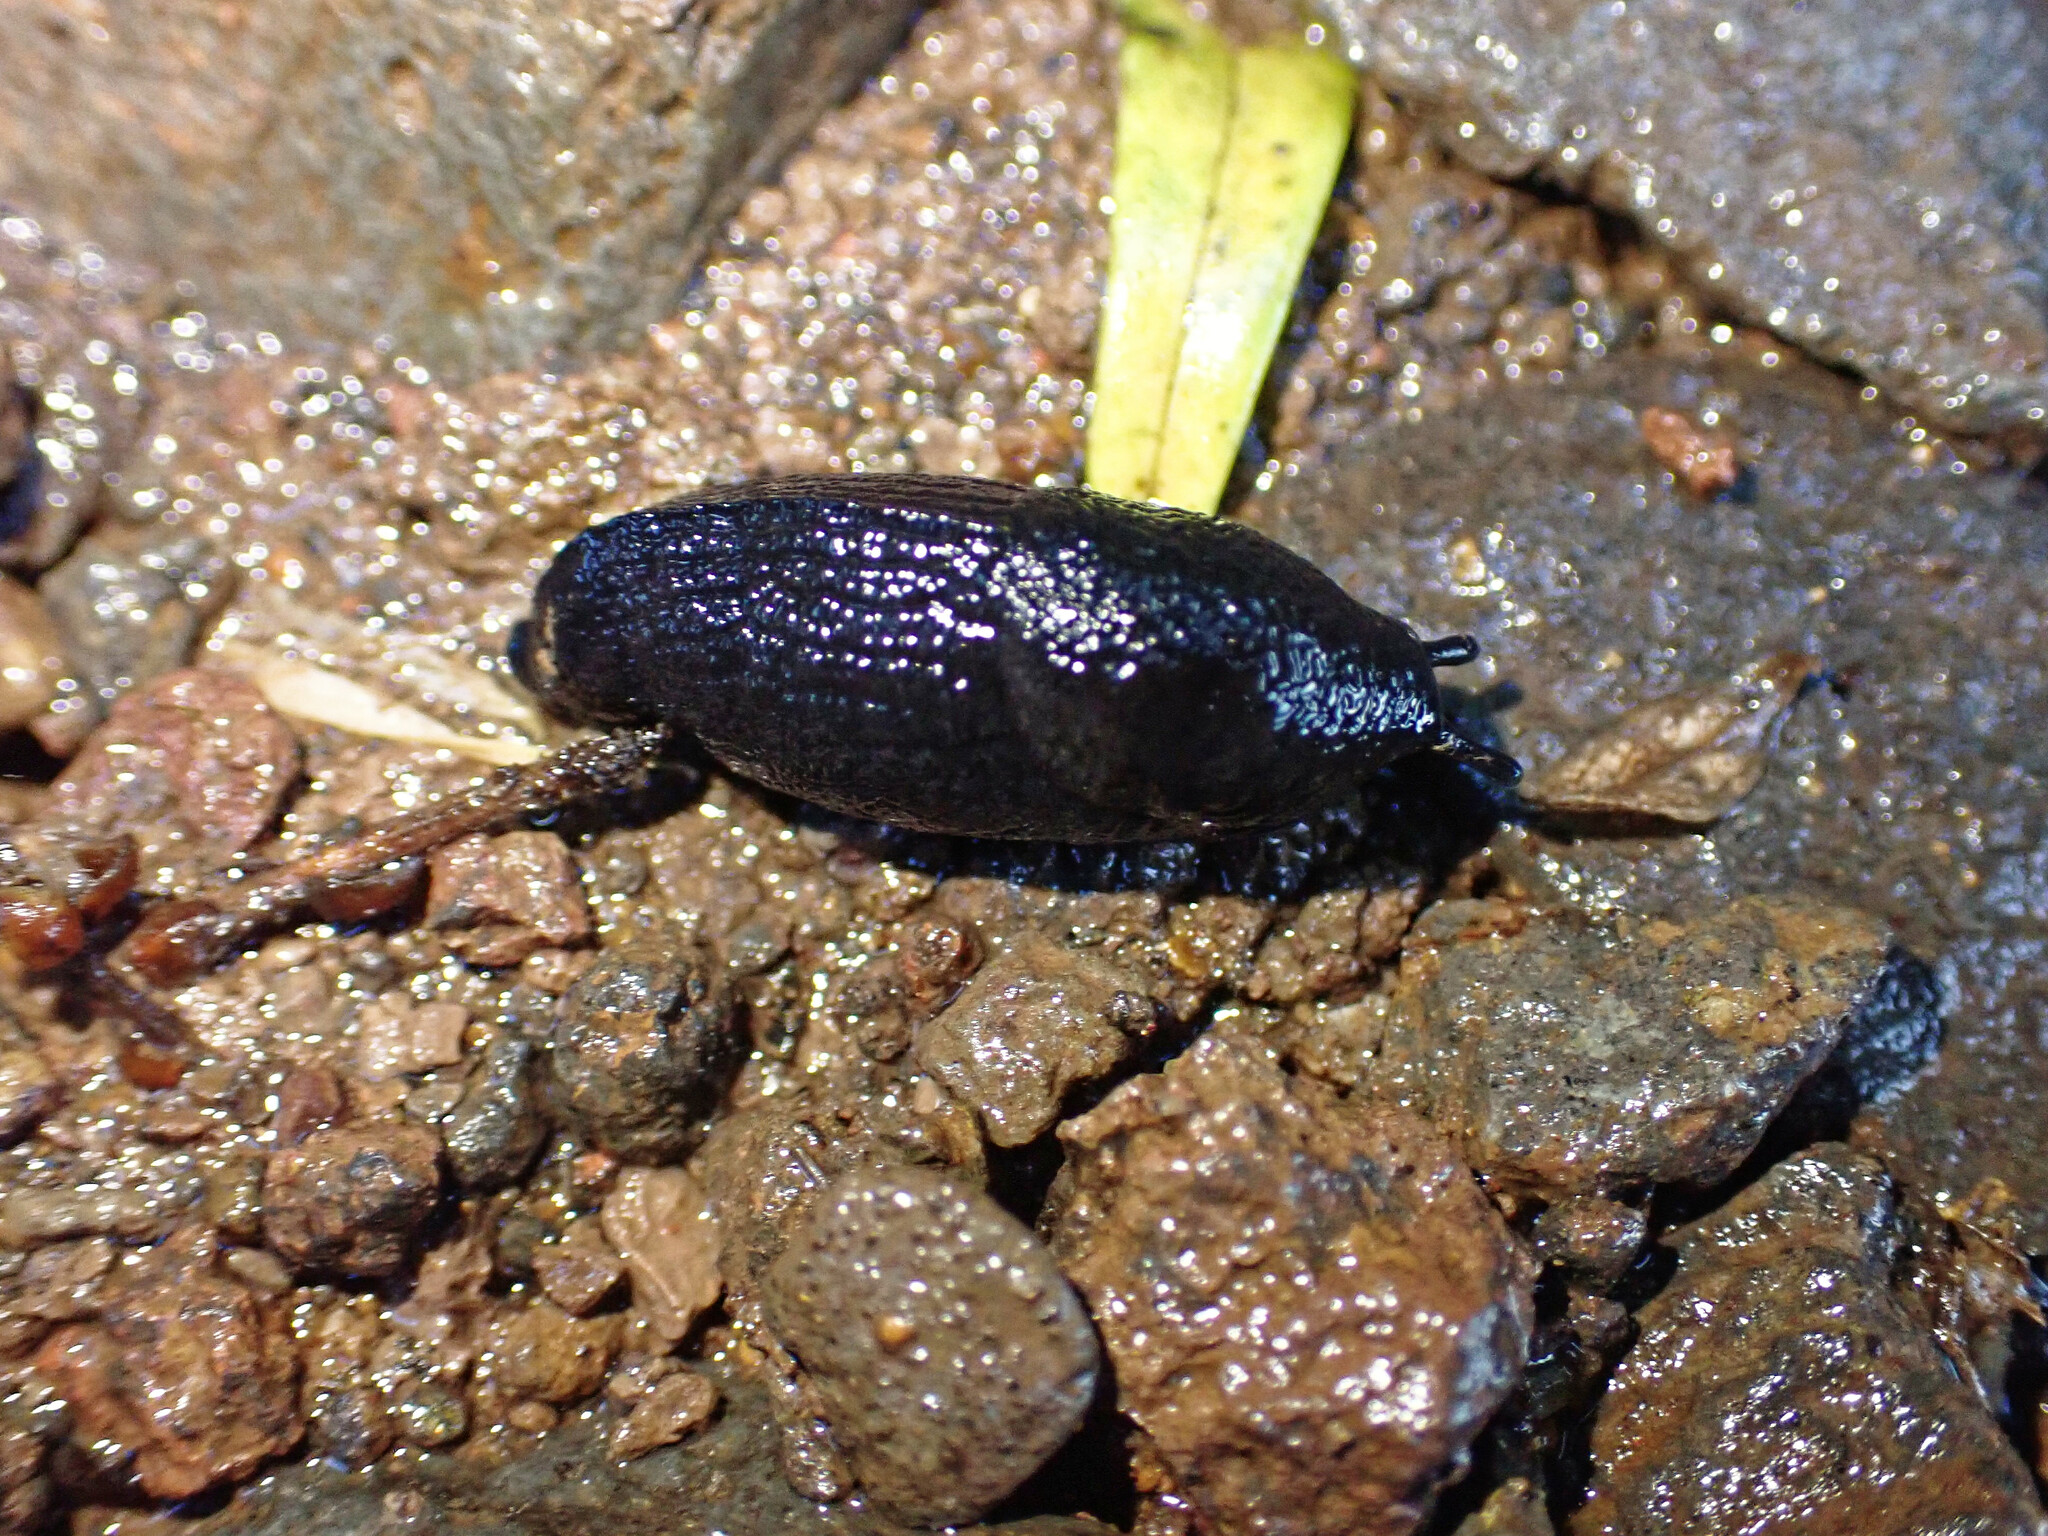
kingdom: Animalia
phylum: Mollusca
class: Gastropoda
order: Stylommatophora
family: Milacidae
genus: Milax
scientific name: Milax gagates
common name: Greenhouse slug
